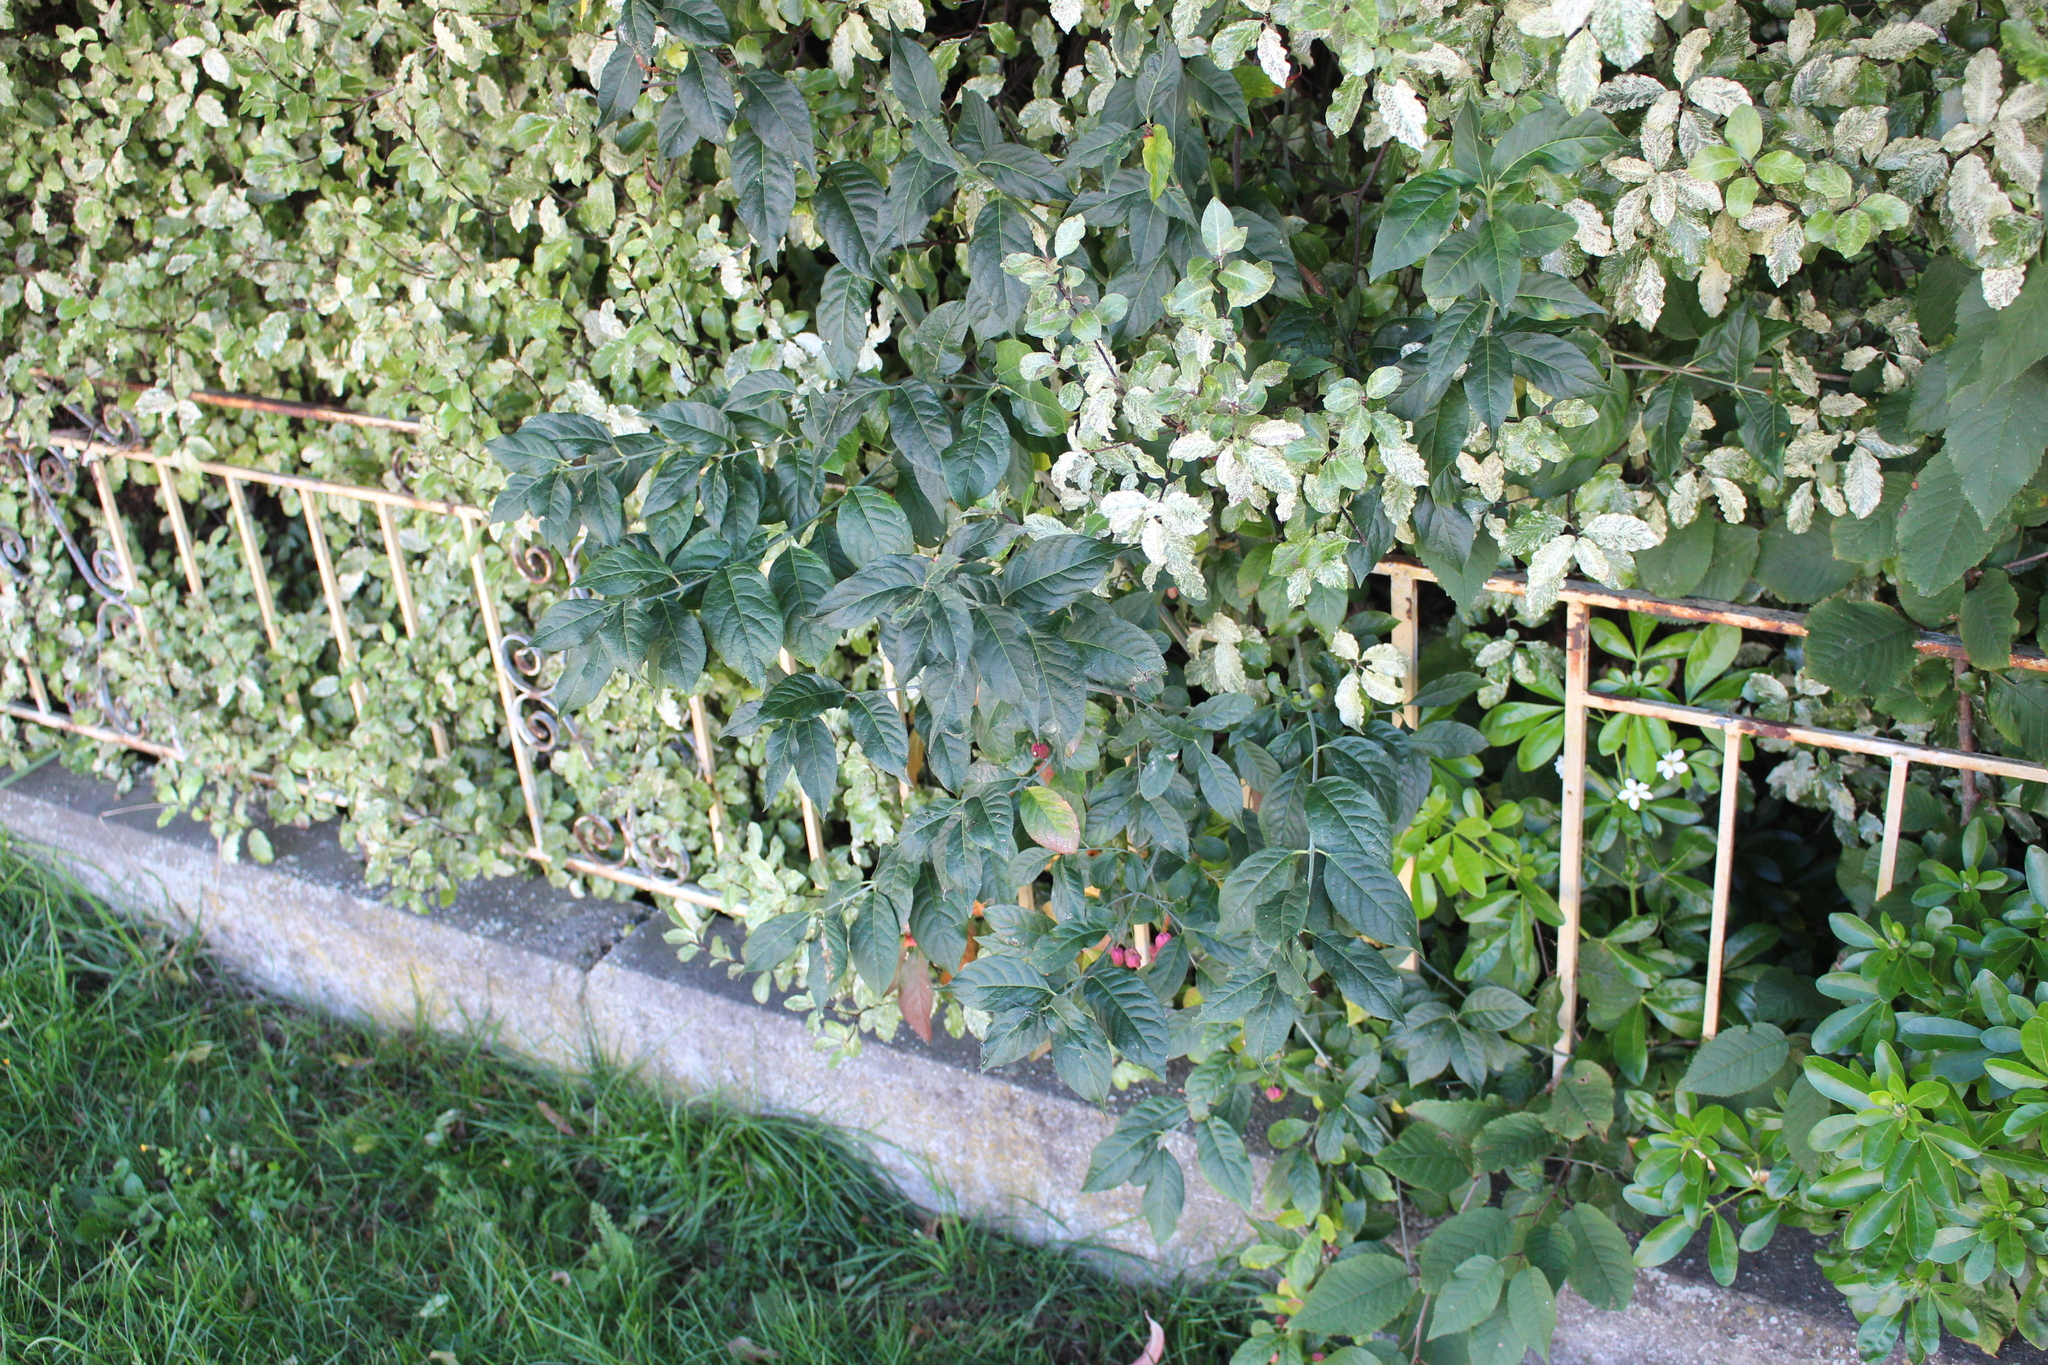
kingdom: Plantae
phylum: Tracheophyta
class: Magnoliopsida
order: Celastrales
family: Celastraceae
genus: Euonymus
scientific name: Euonymus europaeus
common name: Spindle
